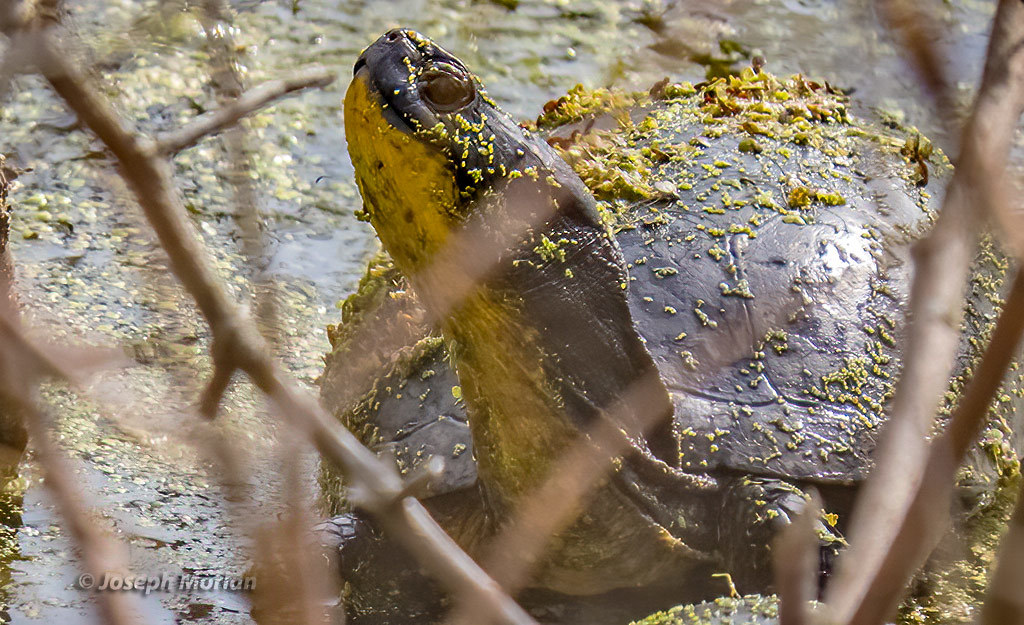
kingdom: Animalia
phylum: Chordata
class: Testudines
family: Emydidae
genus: Emys
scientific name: Emys blandingii
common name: Blanding's turtle
